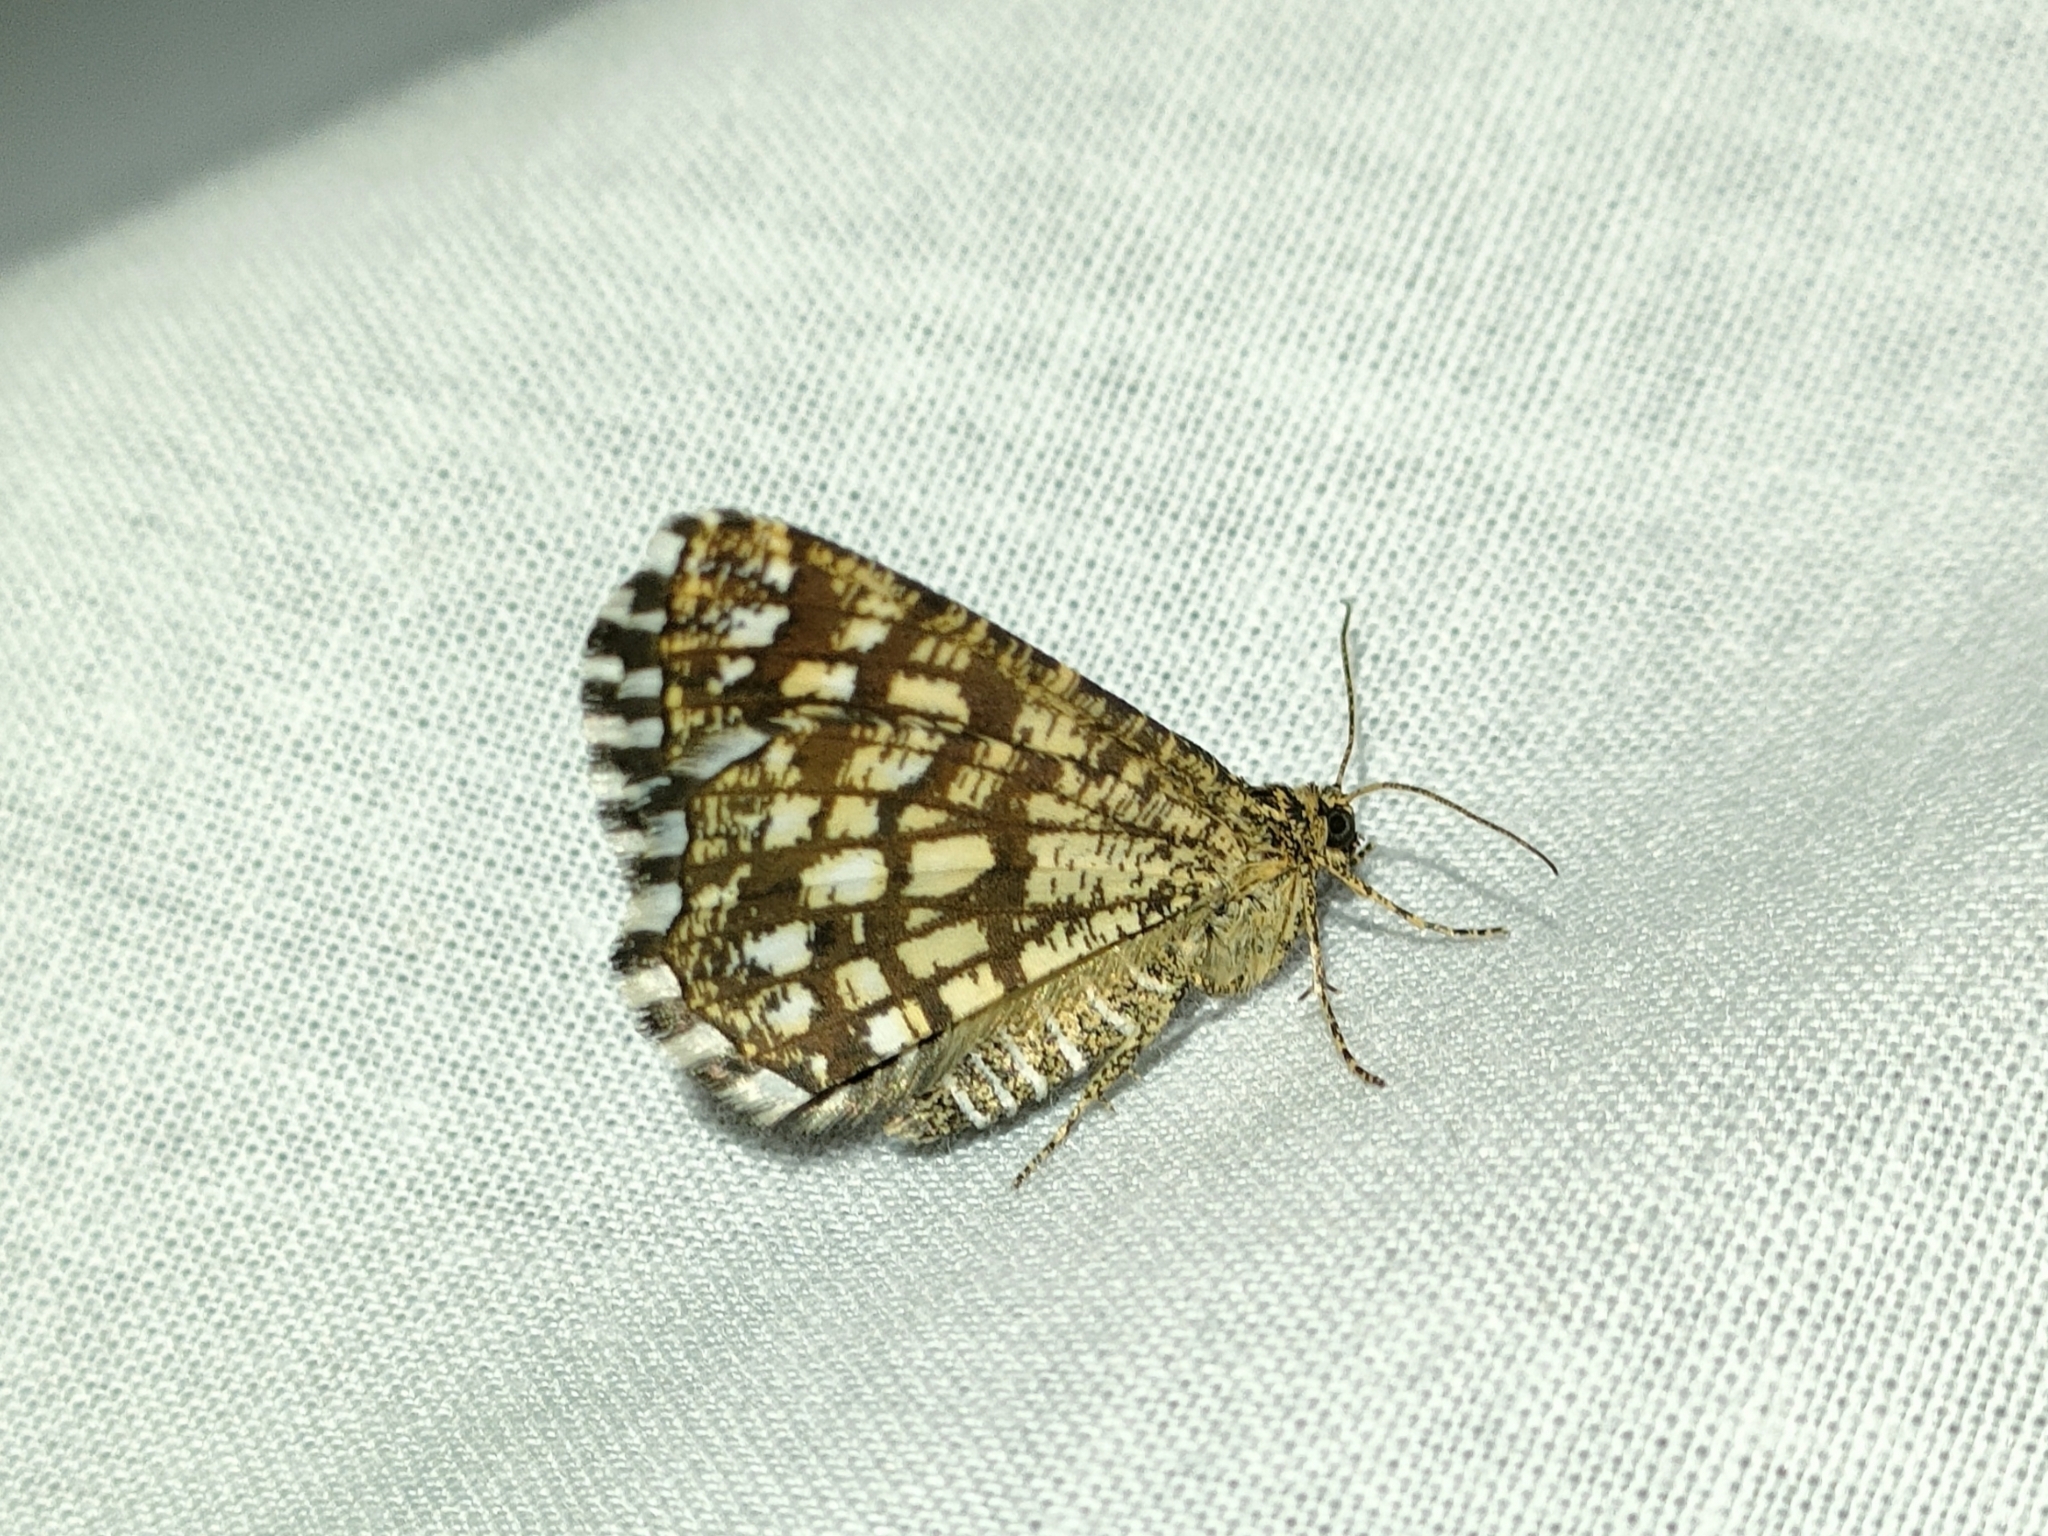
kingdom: Animalia
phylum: Arthropoda
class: Insecta
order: Lepidoptera
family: Geometridae
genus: Chiasmia
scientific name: Chiasmia clathrata
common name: Latticed heath
